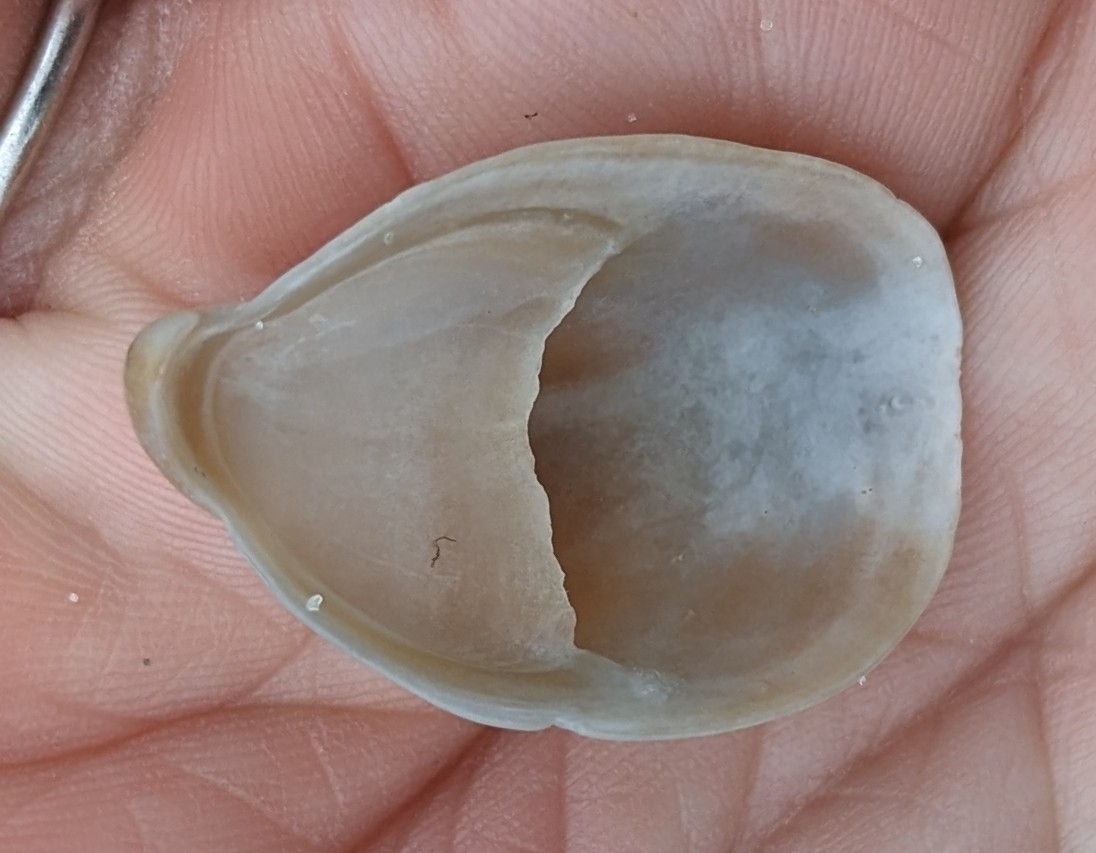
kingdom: Animalia
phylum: Mollusca
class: Gastropoda
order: Littorinimorpha
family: Calyptraeidae
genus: Crepidula
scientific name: Crepidula fornicata
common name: Slipper limpet
